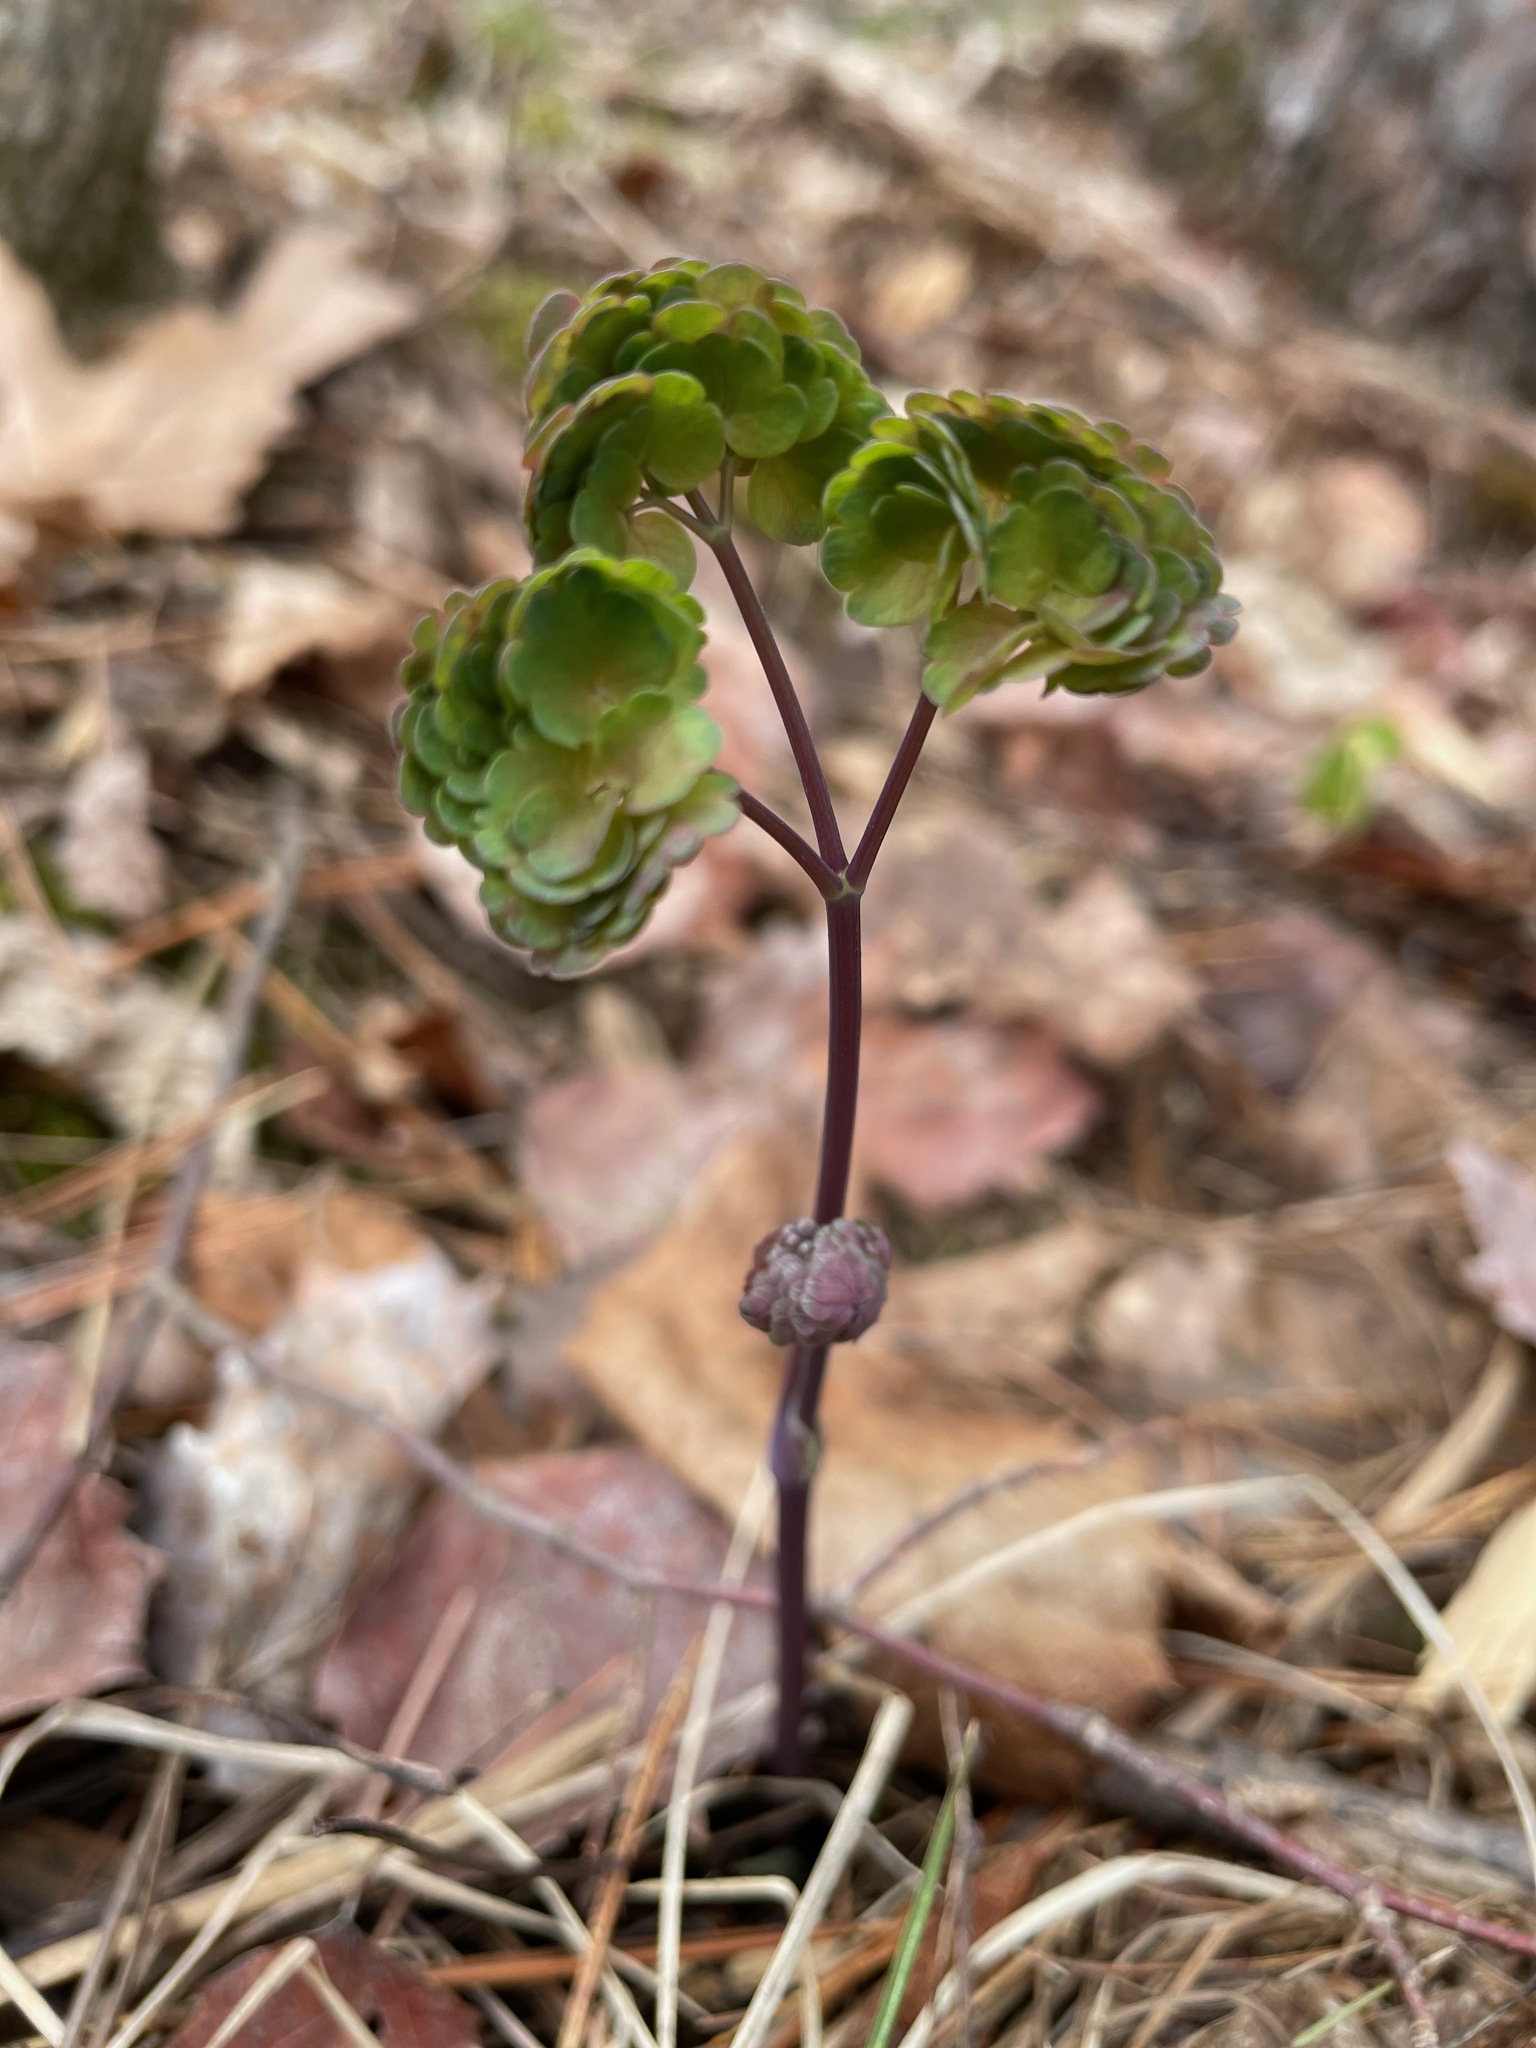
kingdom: Plantae
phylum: Tracheophyta
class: Magnoliopsida
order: Ranunculales
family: Ranunculaceae
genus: Thalictrum
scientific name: Thalictrum dioicum
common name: Early meadow-rue
